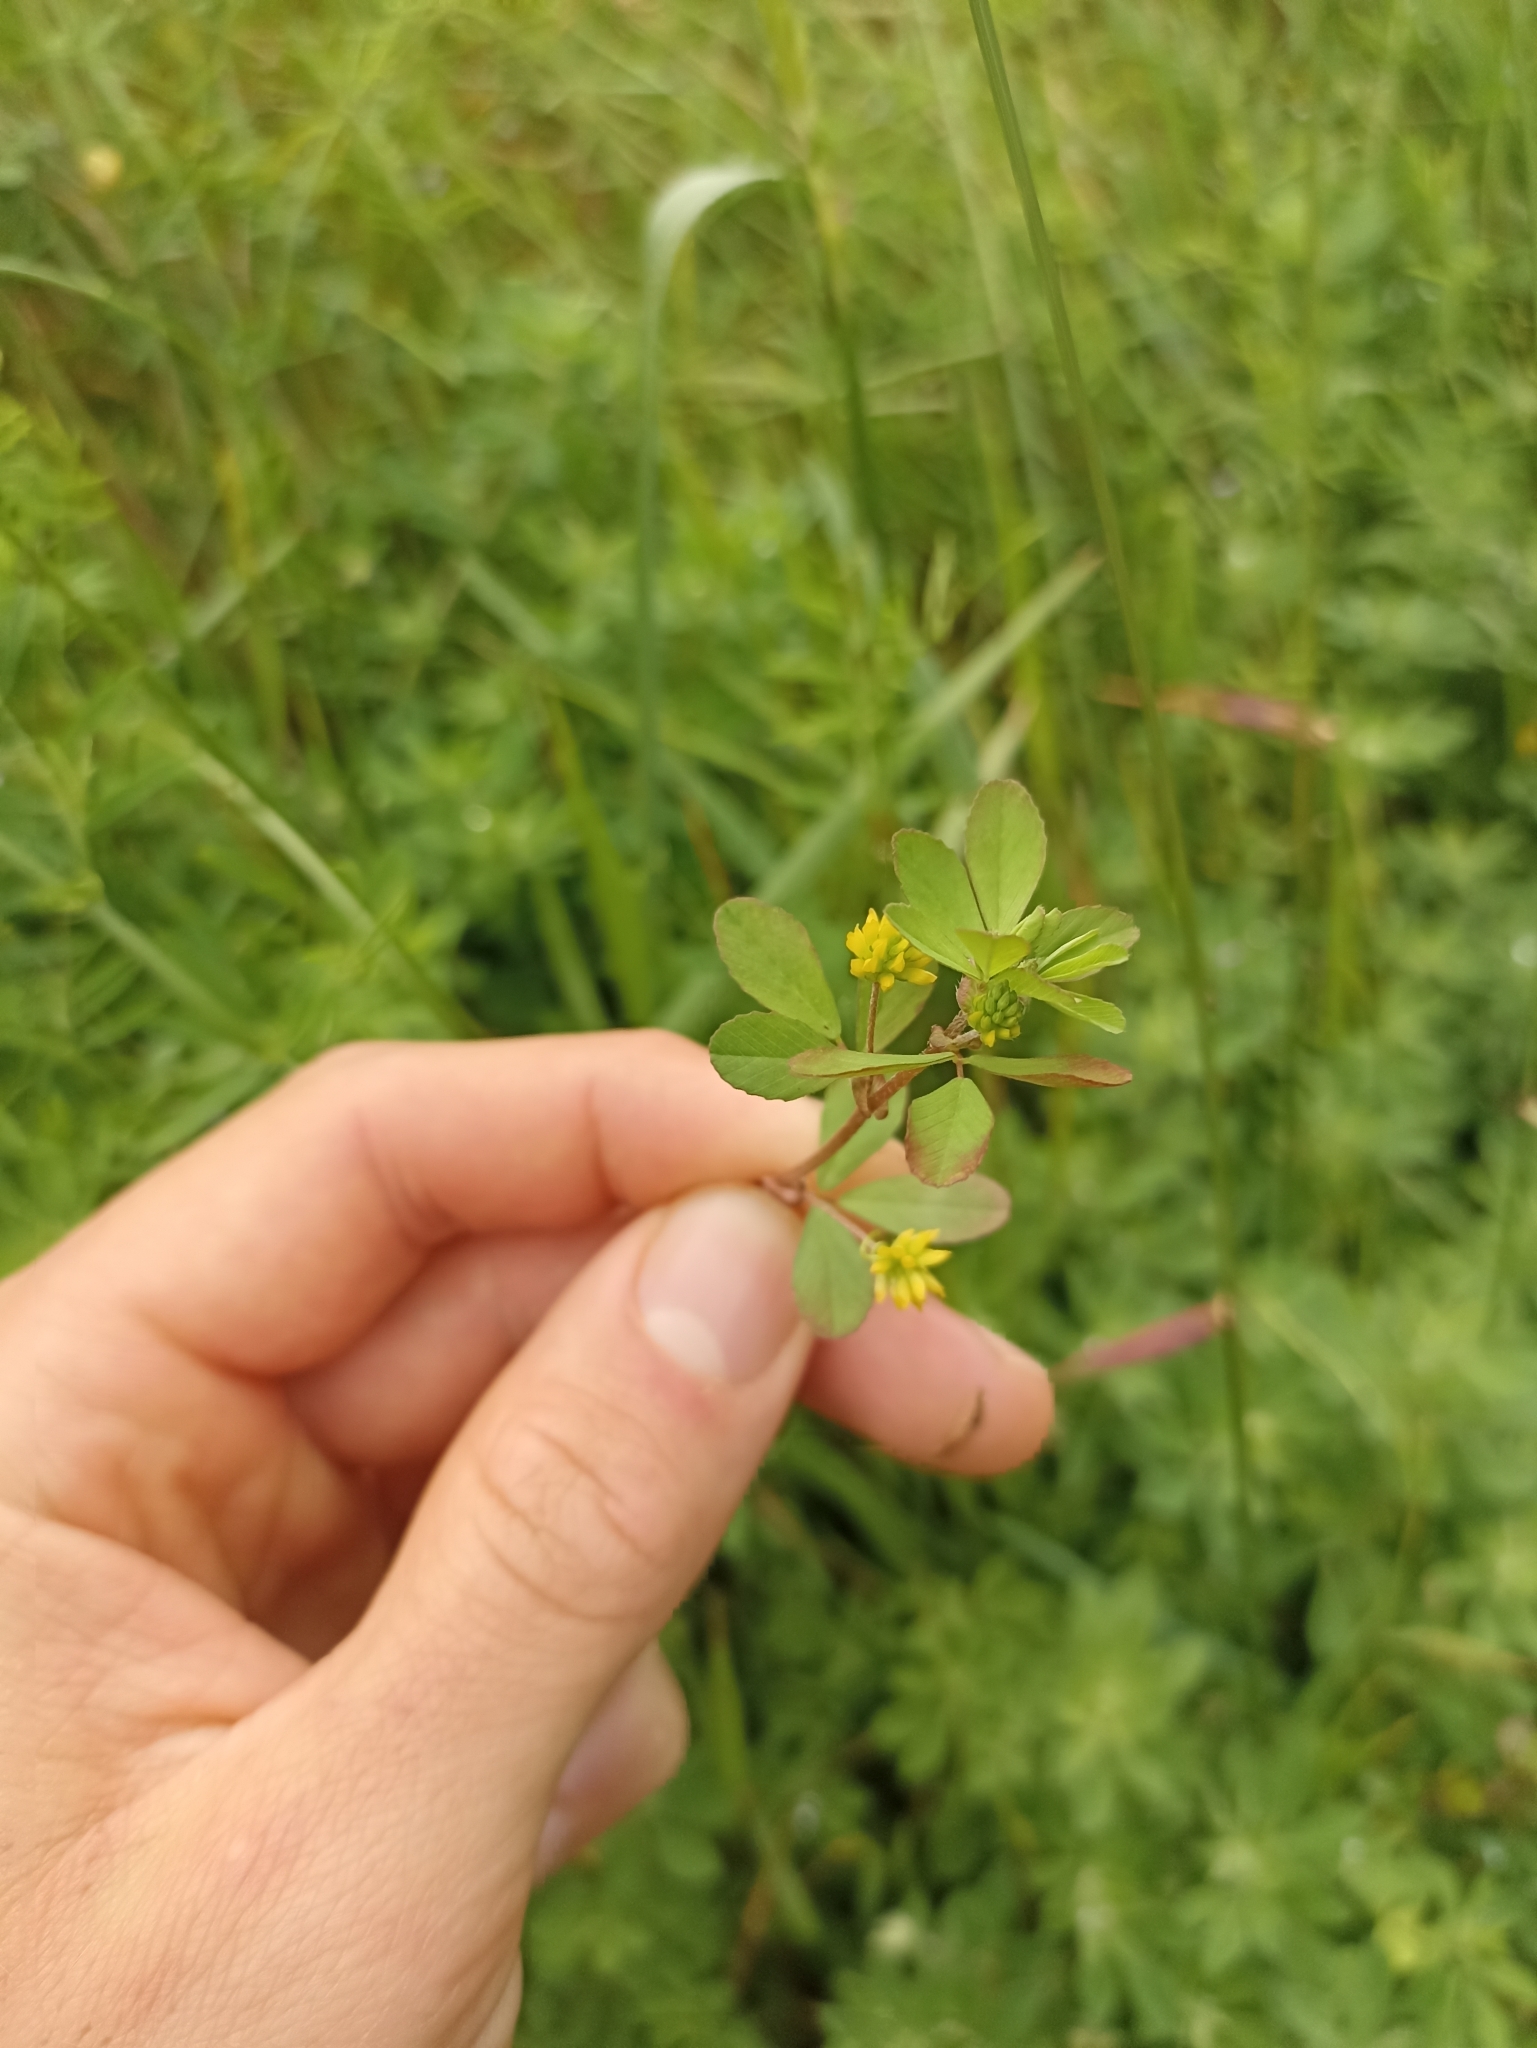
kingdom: Plantae
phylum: Tracheophyta
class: Magnoliopsida
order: Fabales
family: Fabaceae
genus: Trifolium
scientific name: Trifolium dubium
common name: Suckling clover
